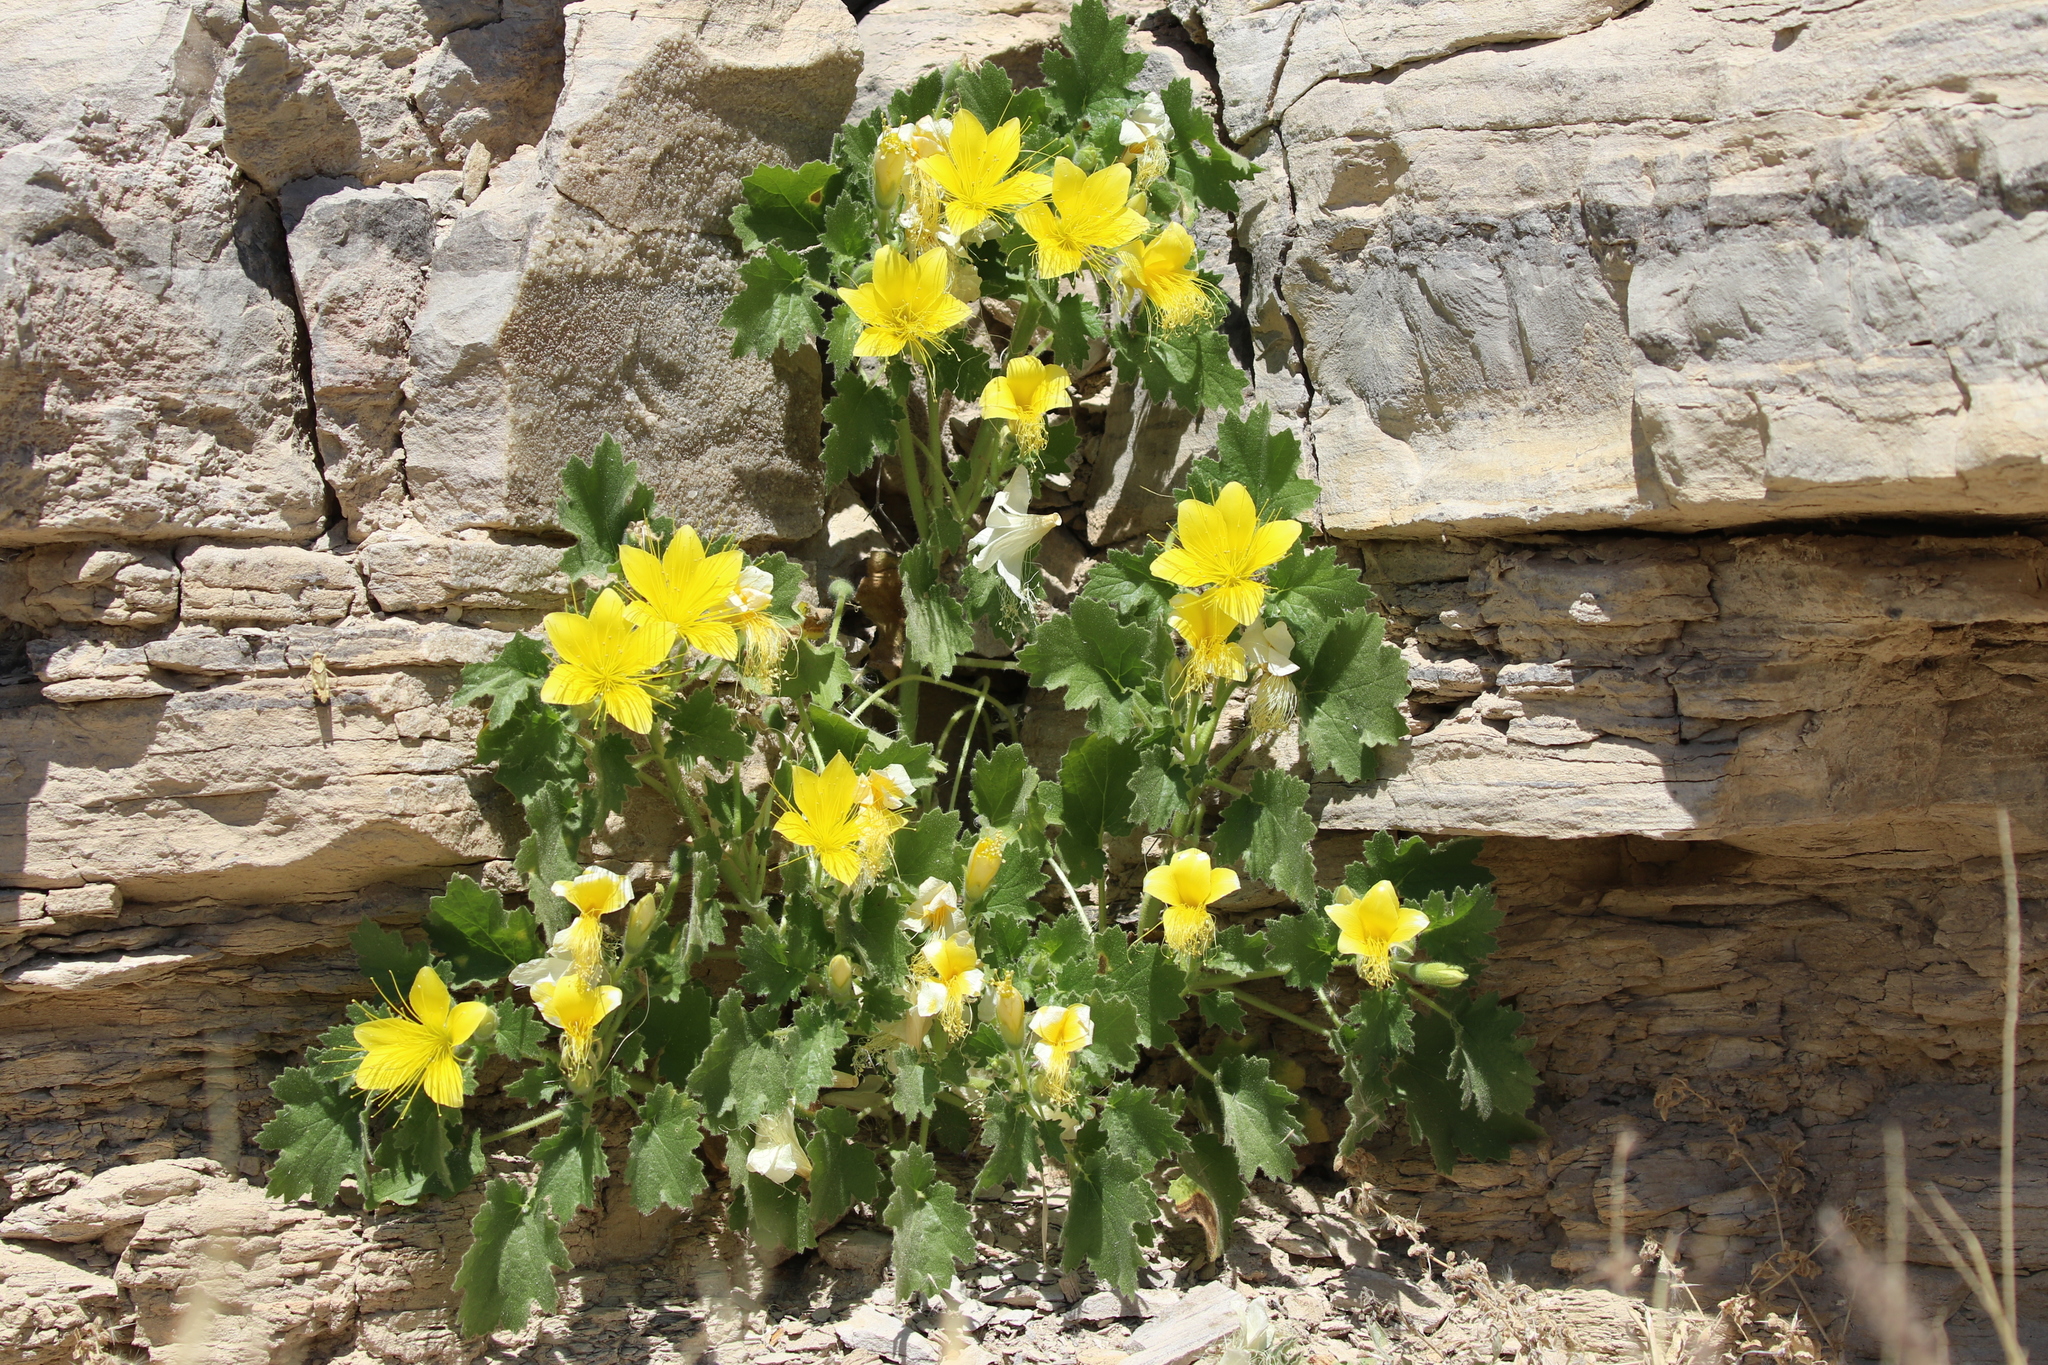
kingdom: Plantae
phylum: Tracheophyta
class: Magnoliopsida
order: Cornales
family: Loasaceae
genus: Eucnide
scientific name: Eucnide bartonioides
